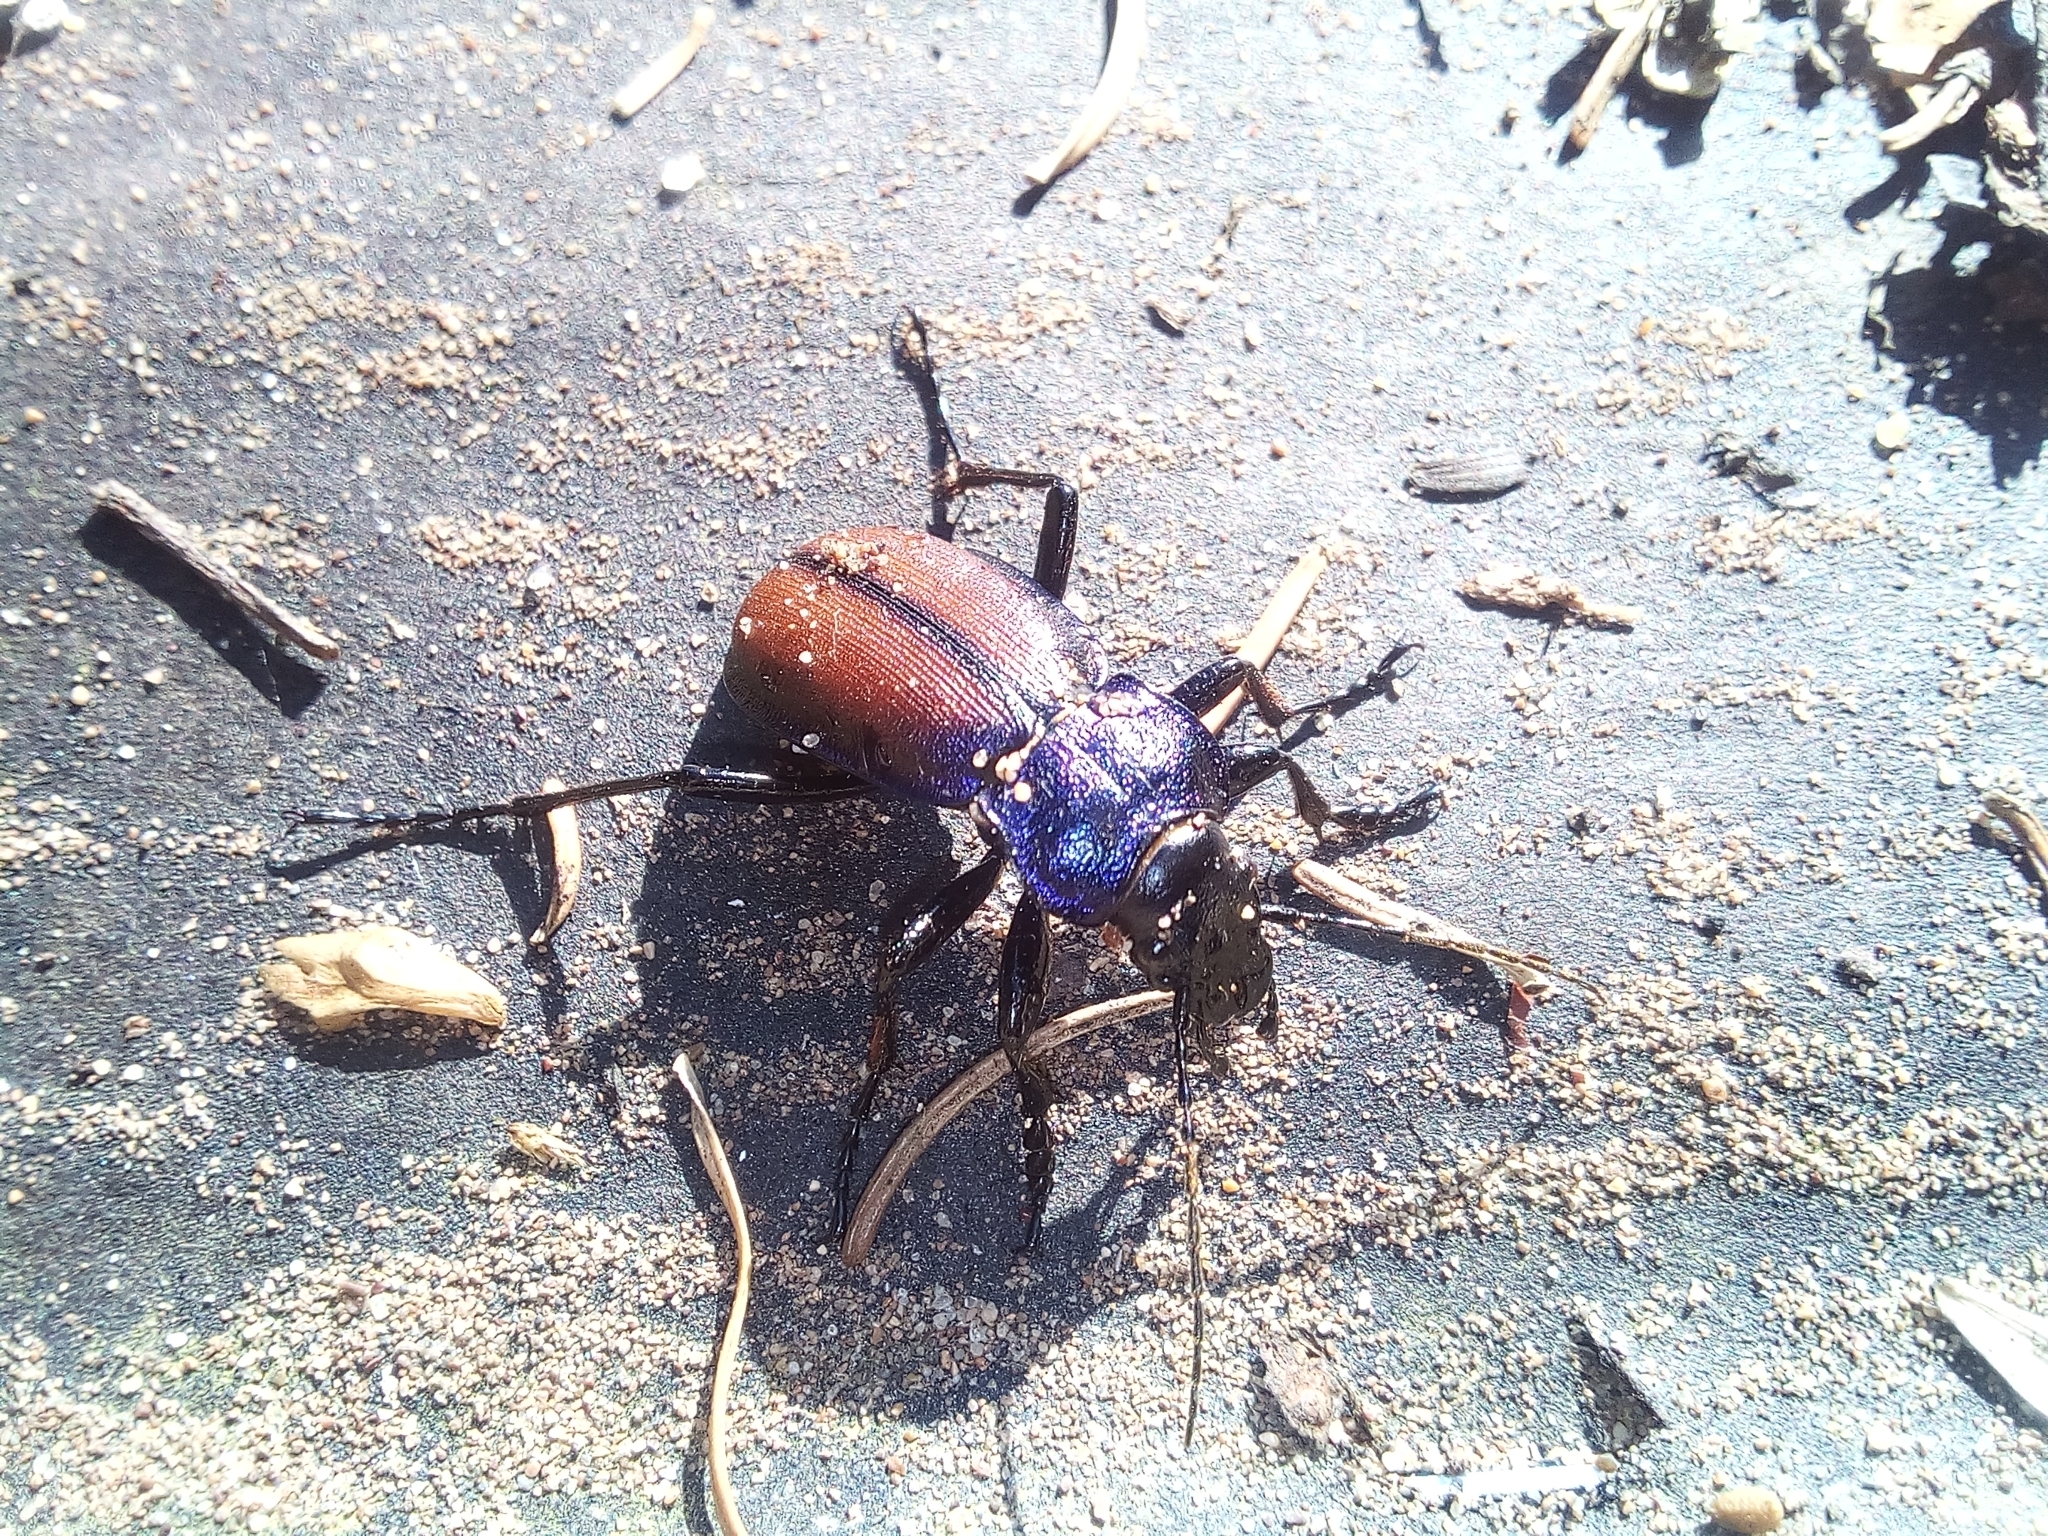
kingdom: Animalia
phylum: Arthropoda
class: Insecta
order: Coleoptera
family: Carabidae
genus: Carabus
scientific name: Carabus schoenherri
